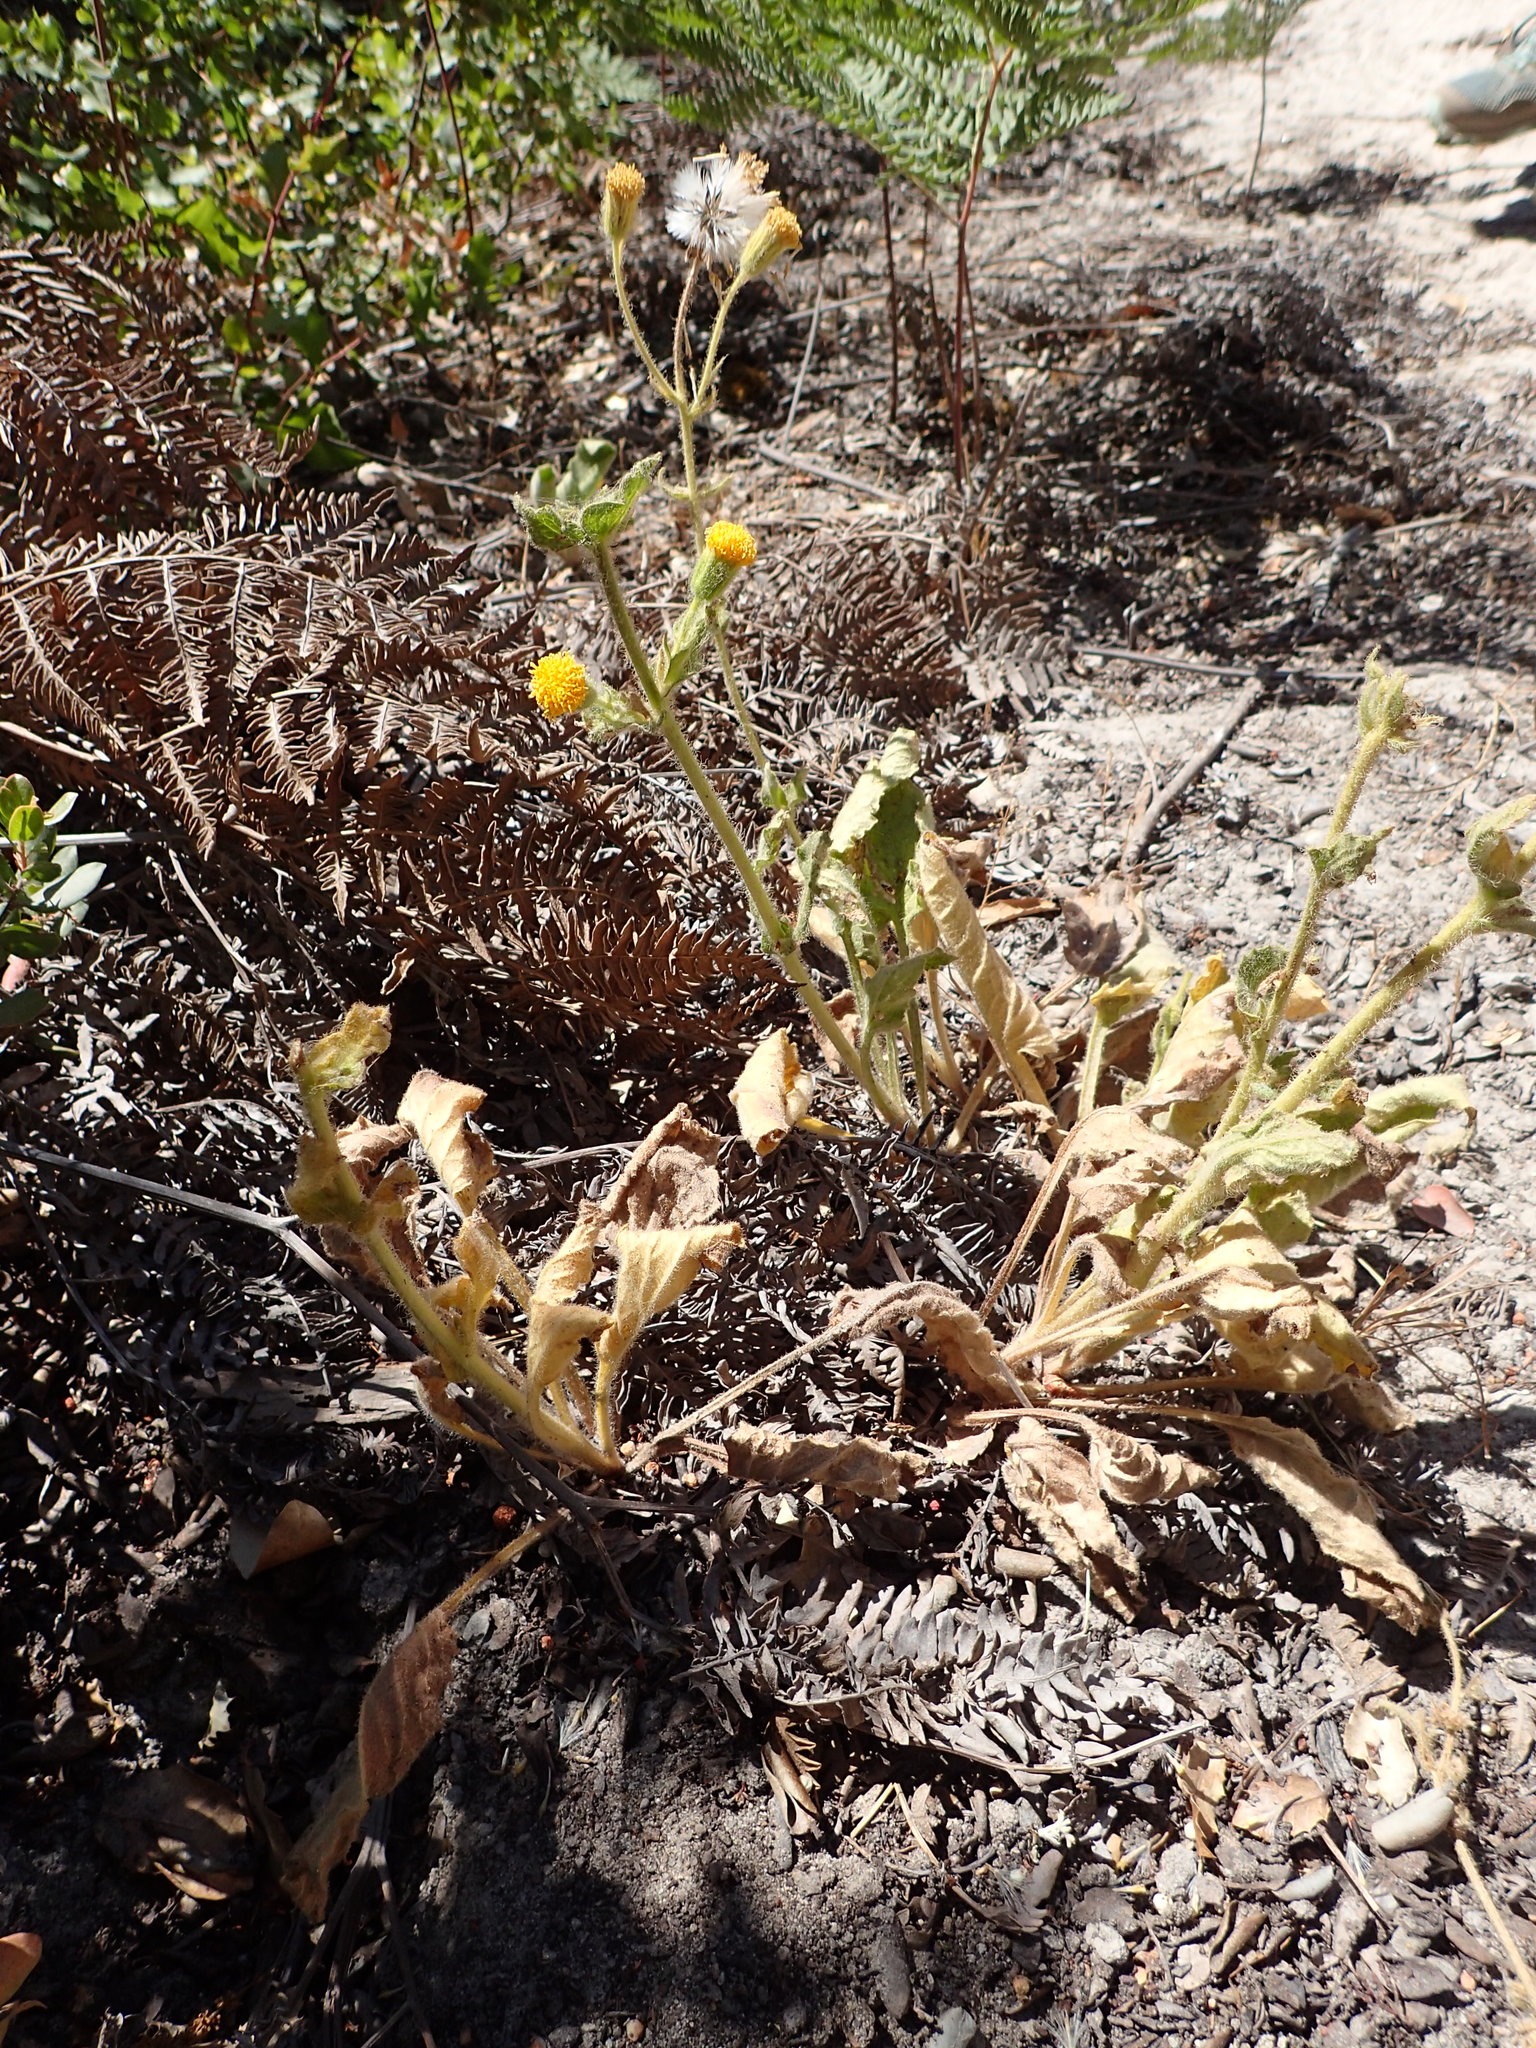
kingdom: Plantae
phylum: Tracheophyta
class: Magnoliopsida
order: Asterales
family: Asteraceae
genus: Arnica
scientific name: Arnica discoidea
